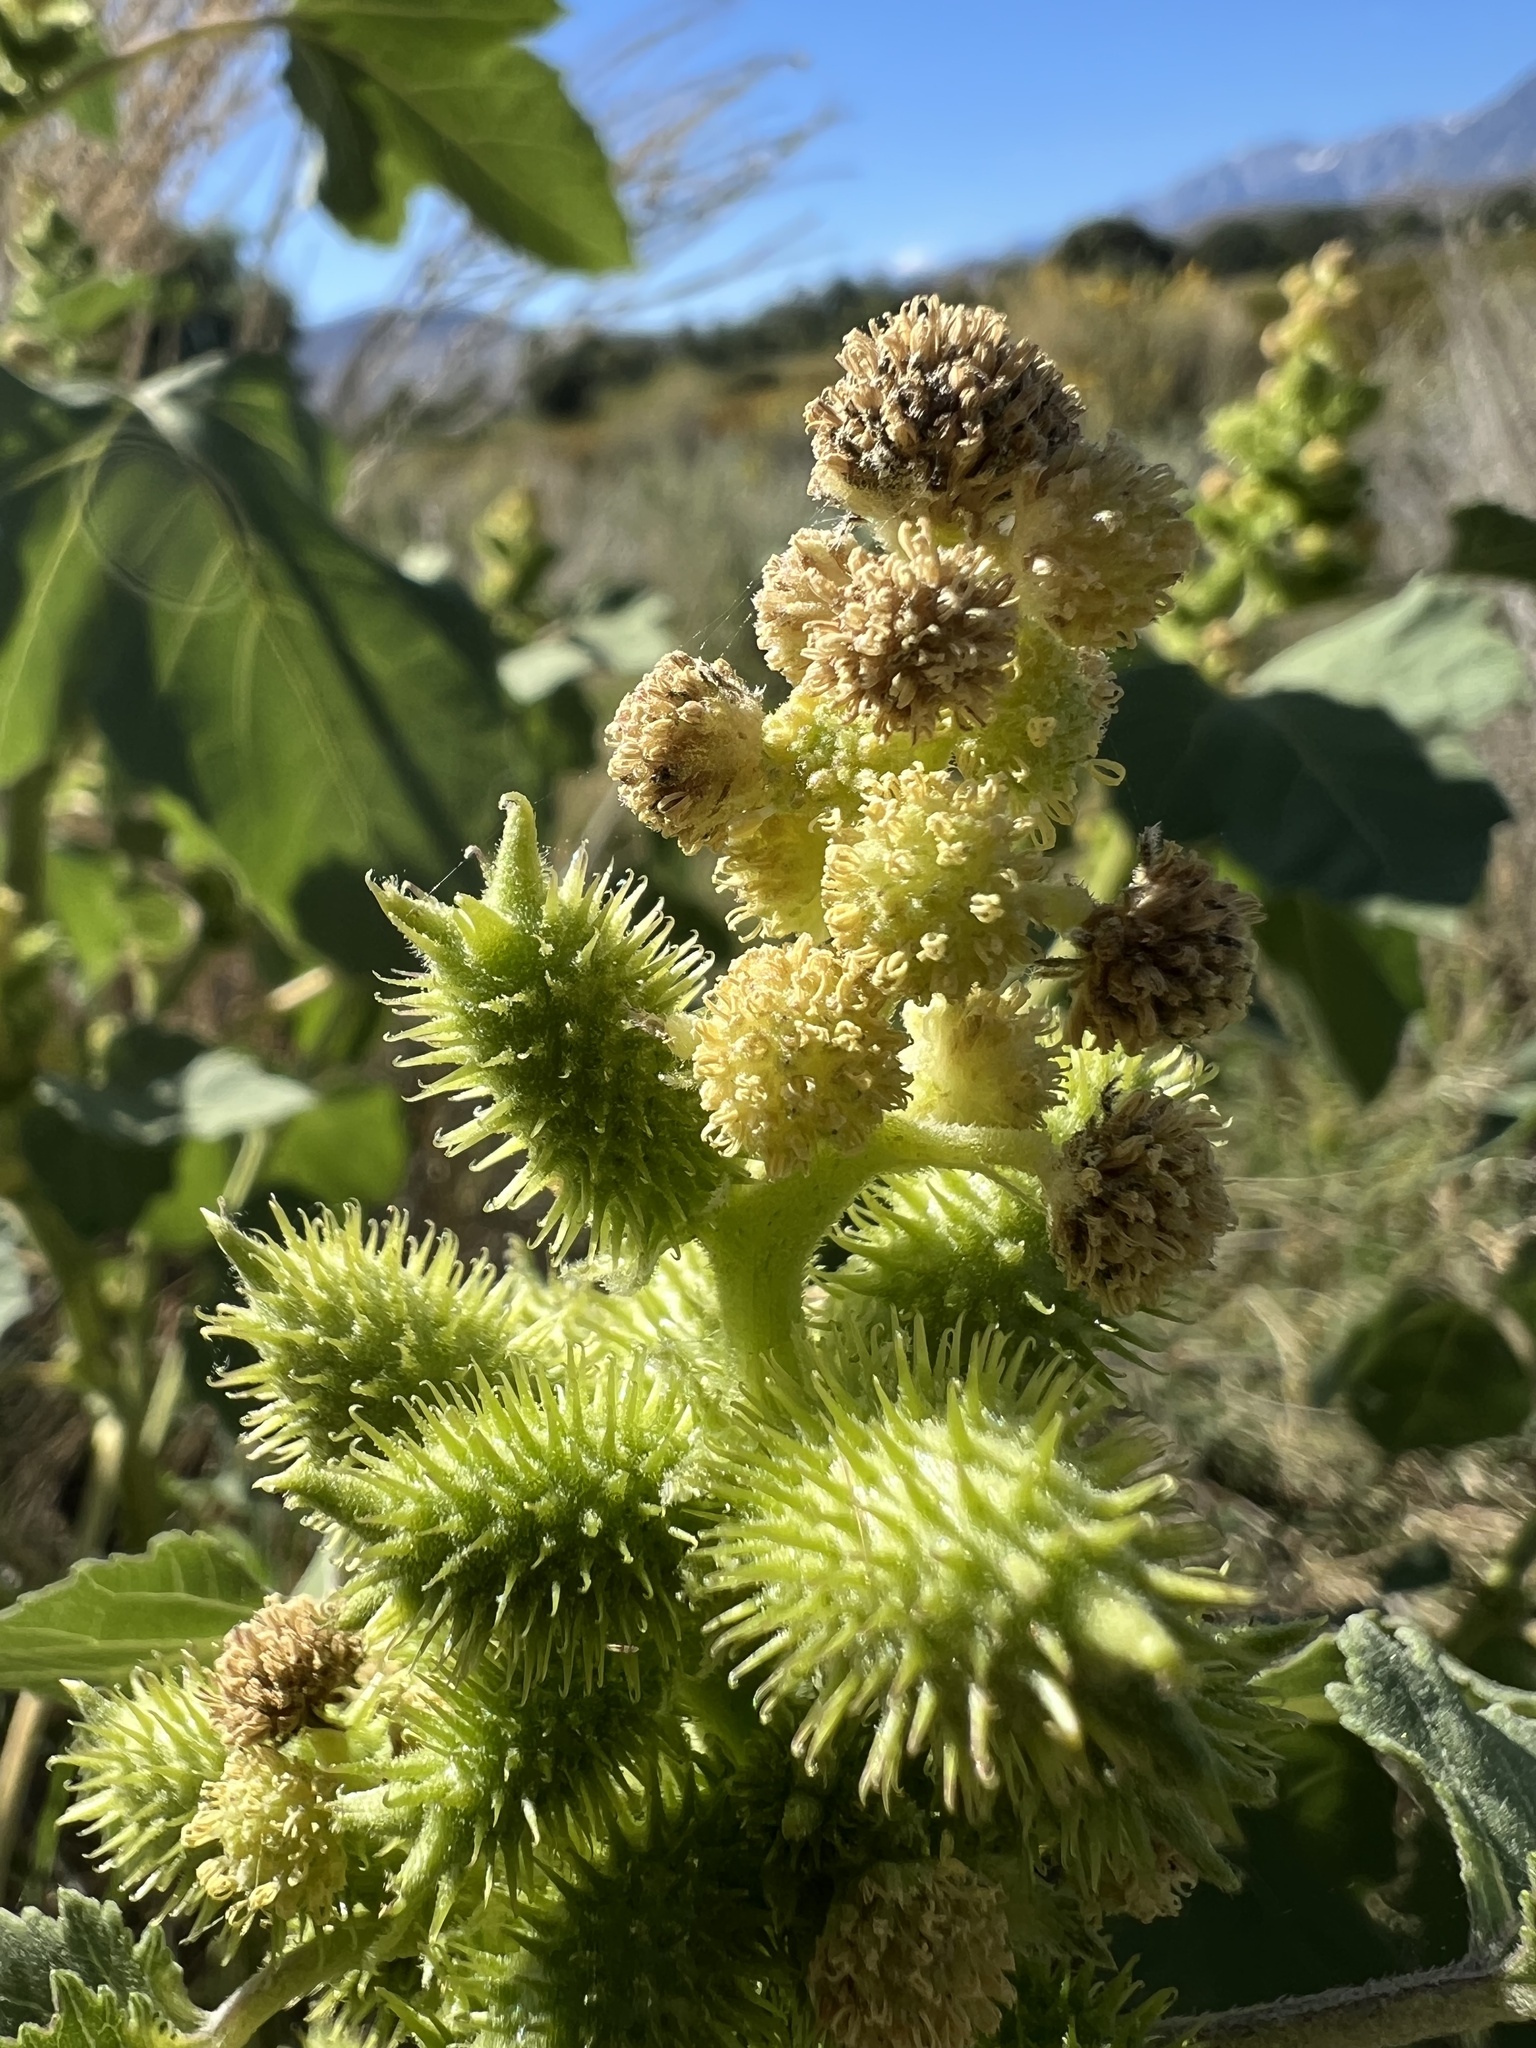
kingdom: Plantae
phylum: Tracheophyta
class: Magnoliopsida
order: Asterales
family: Asteraceae
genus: Xanthium
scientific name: Xanthium strumarium
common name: Rough cocklebur
